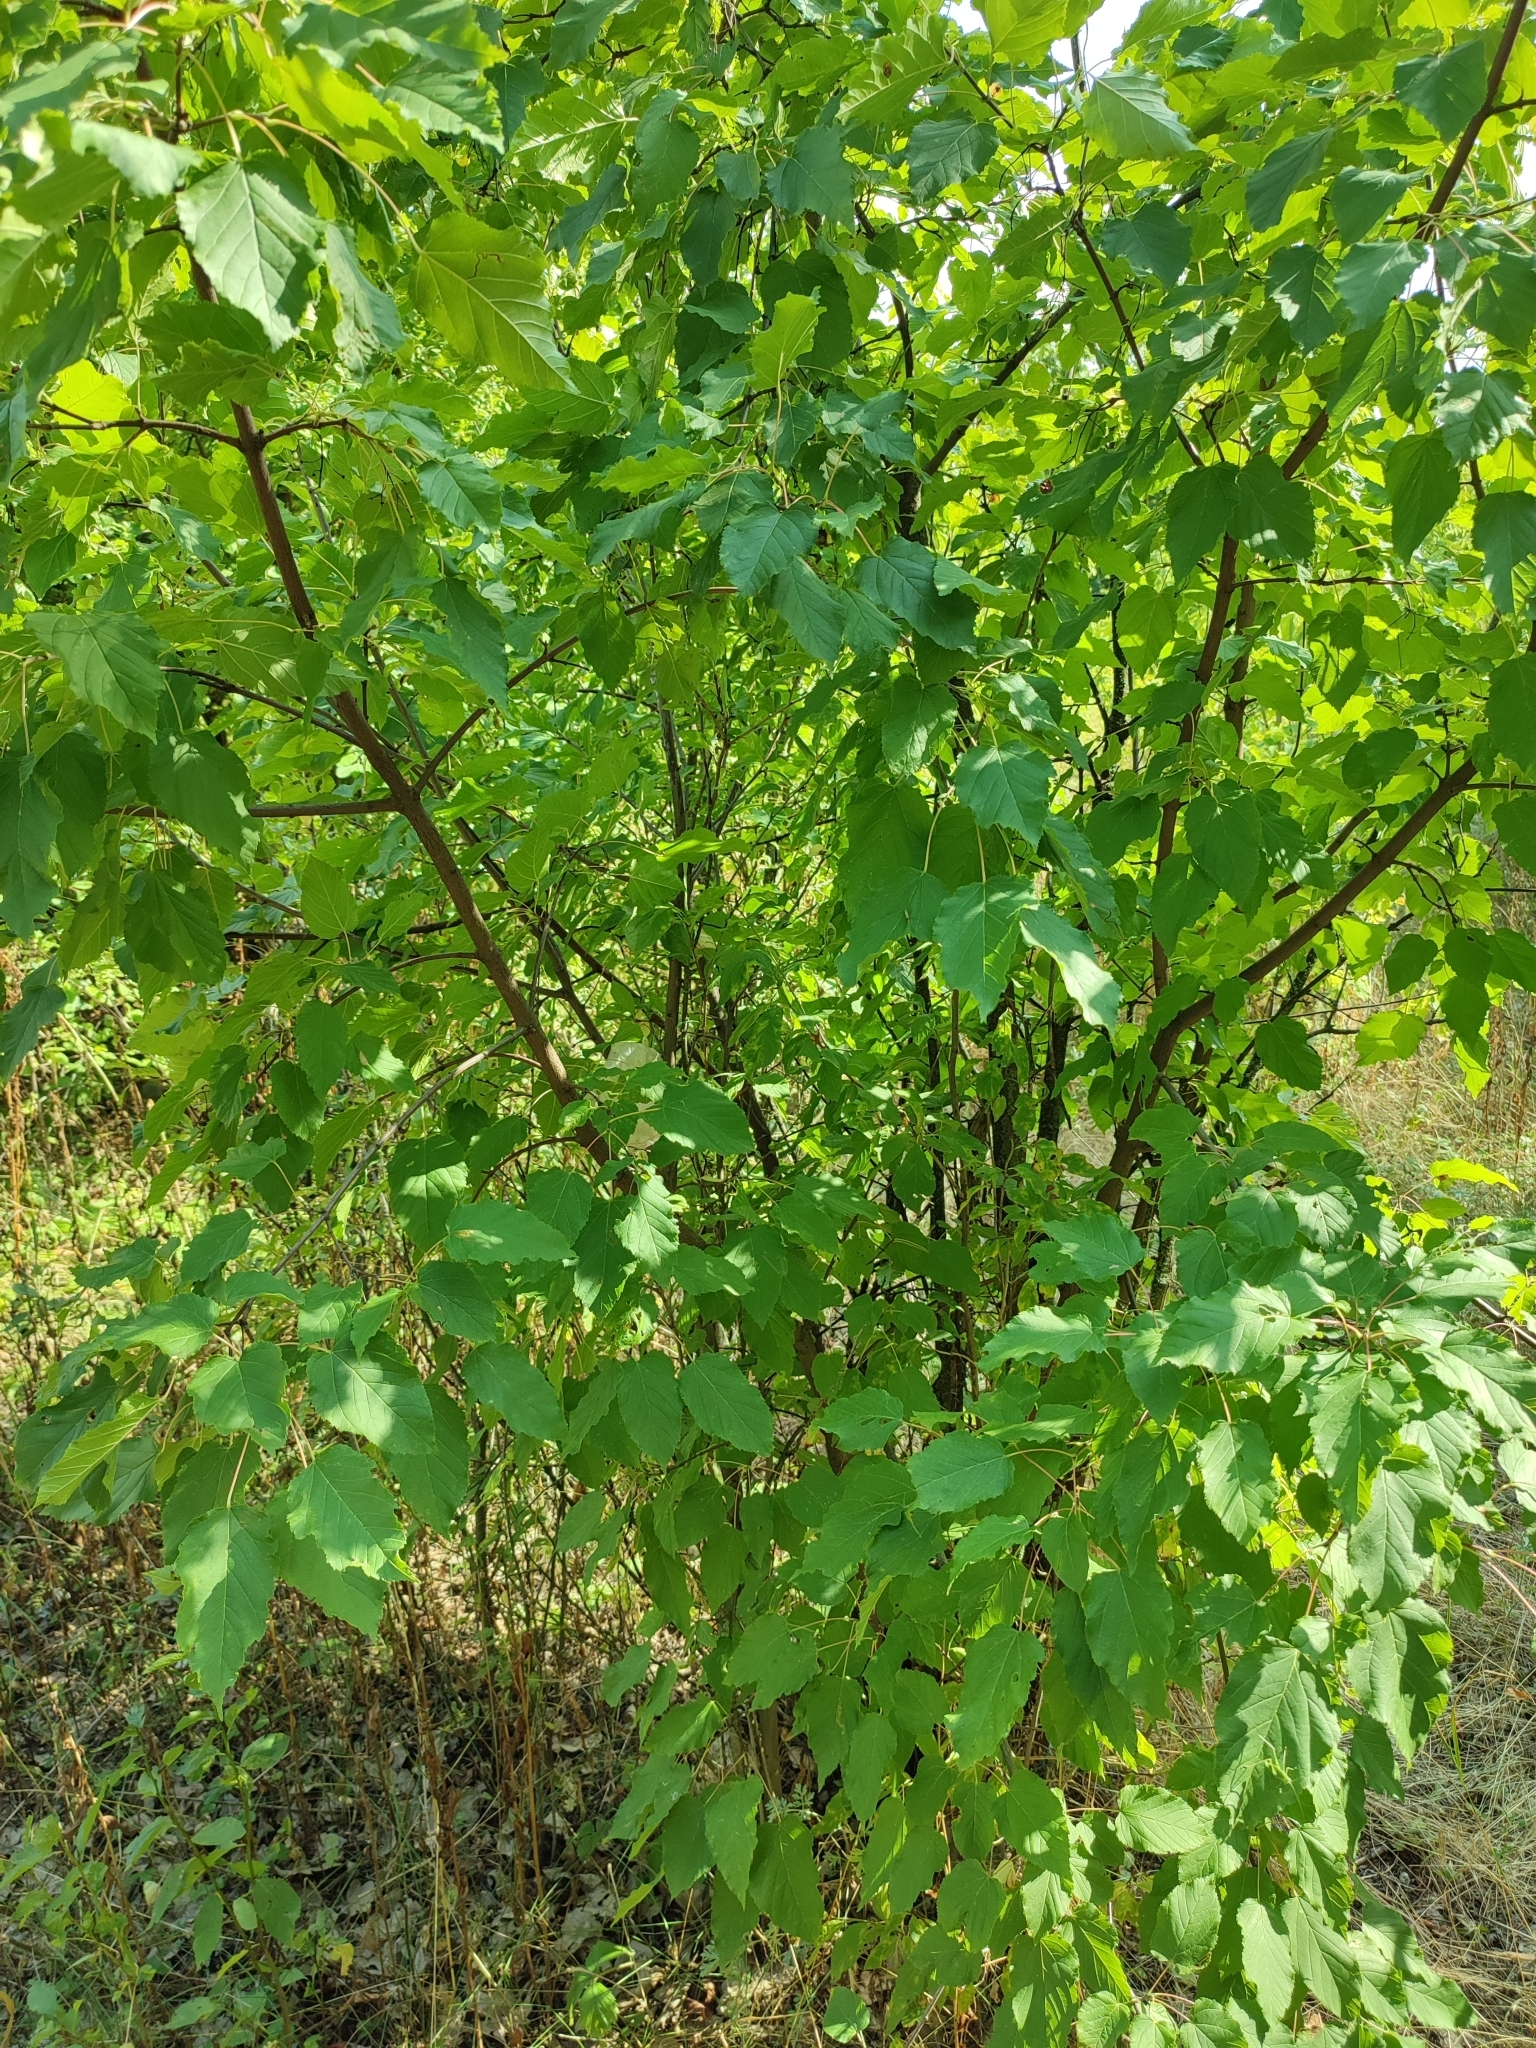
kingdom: Plantae
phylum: Tracheophyta
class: Magnoliopsida
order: Sapindales
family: Sapindaceae
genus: Acer
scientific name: Acer tataricum
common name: Tartar maple
